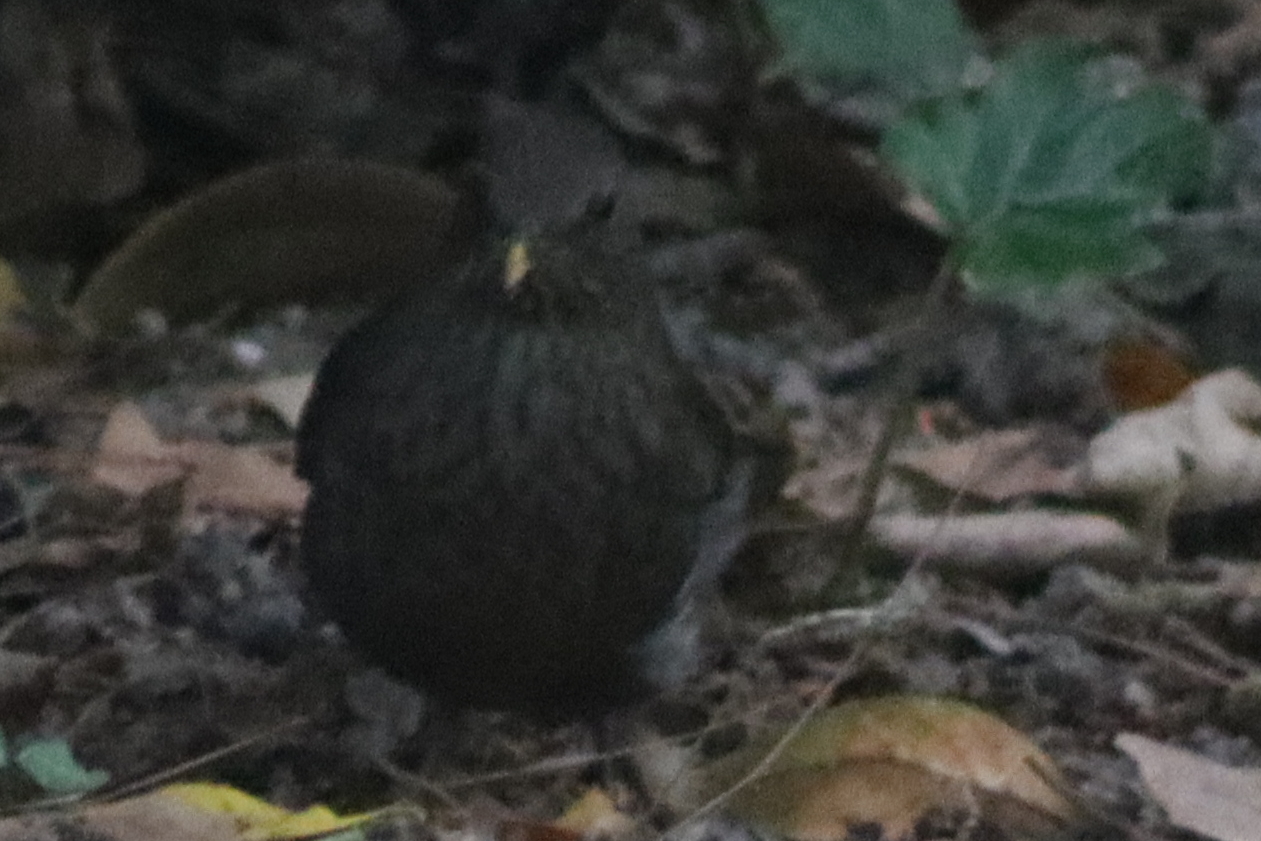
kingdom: Animalia
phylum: Chordata
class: Aves
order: Passeriformes
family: Turdidae
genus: Turdus
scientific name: Turdus merula
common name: Common blackbird
